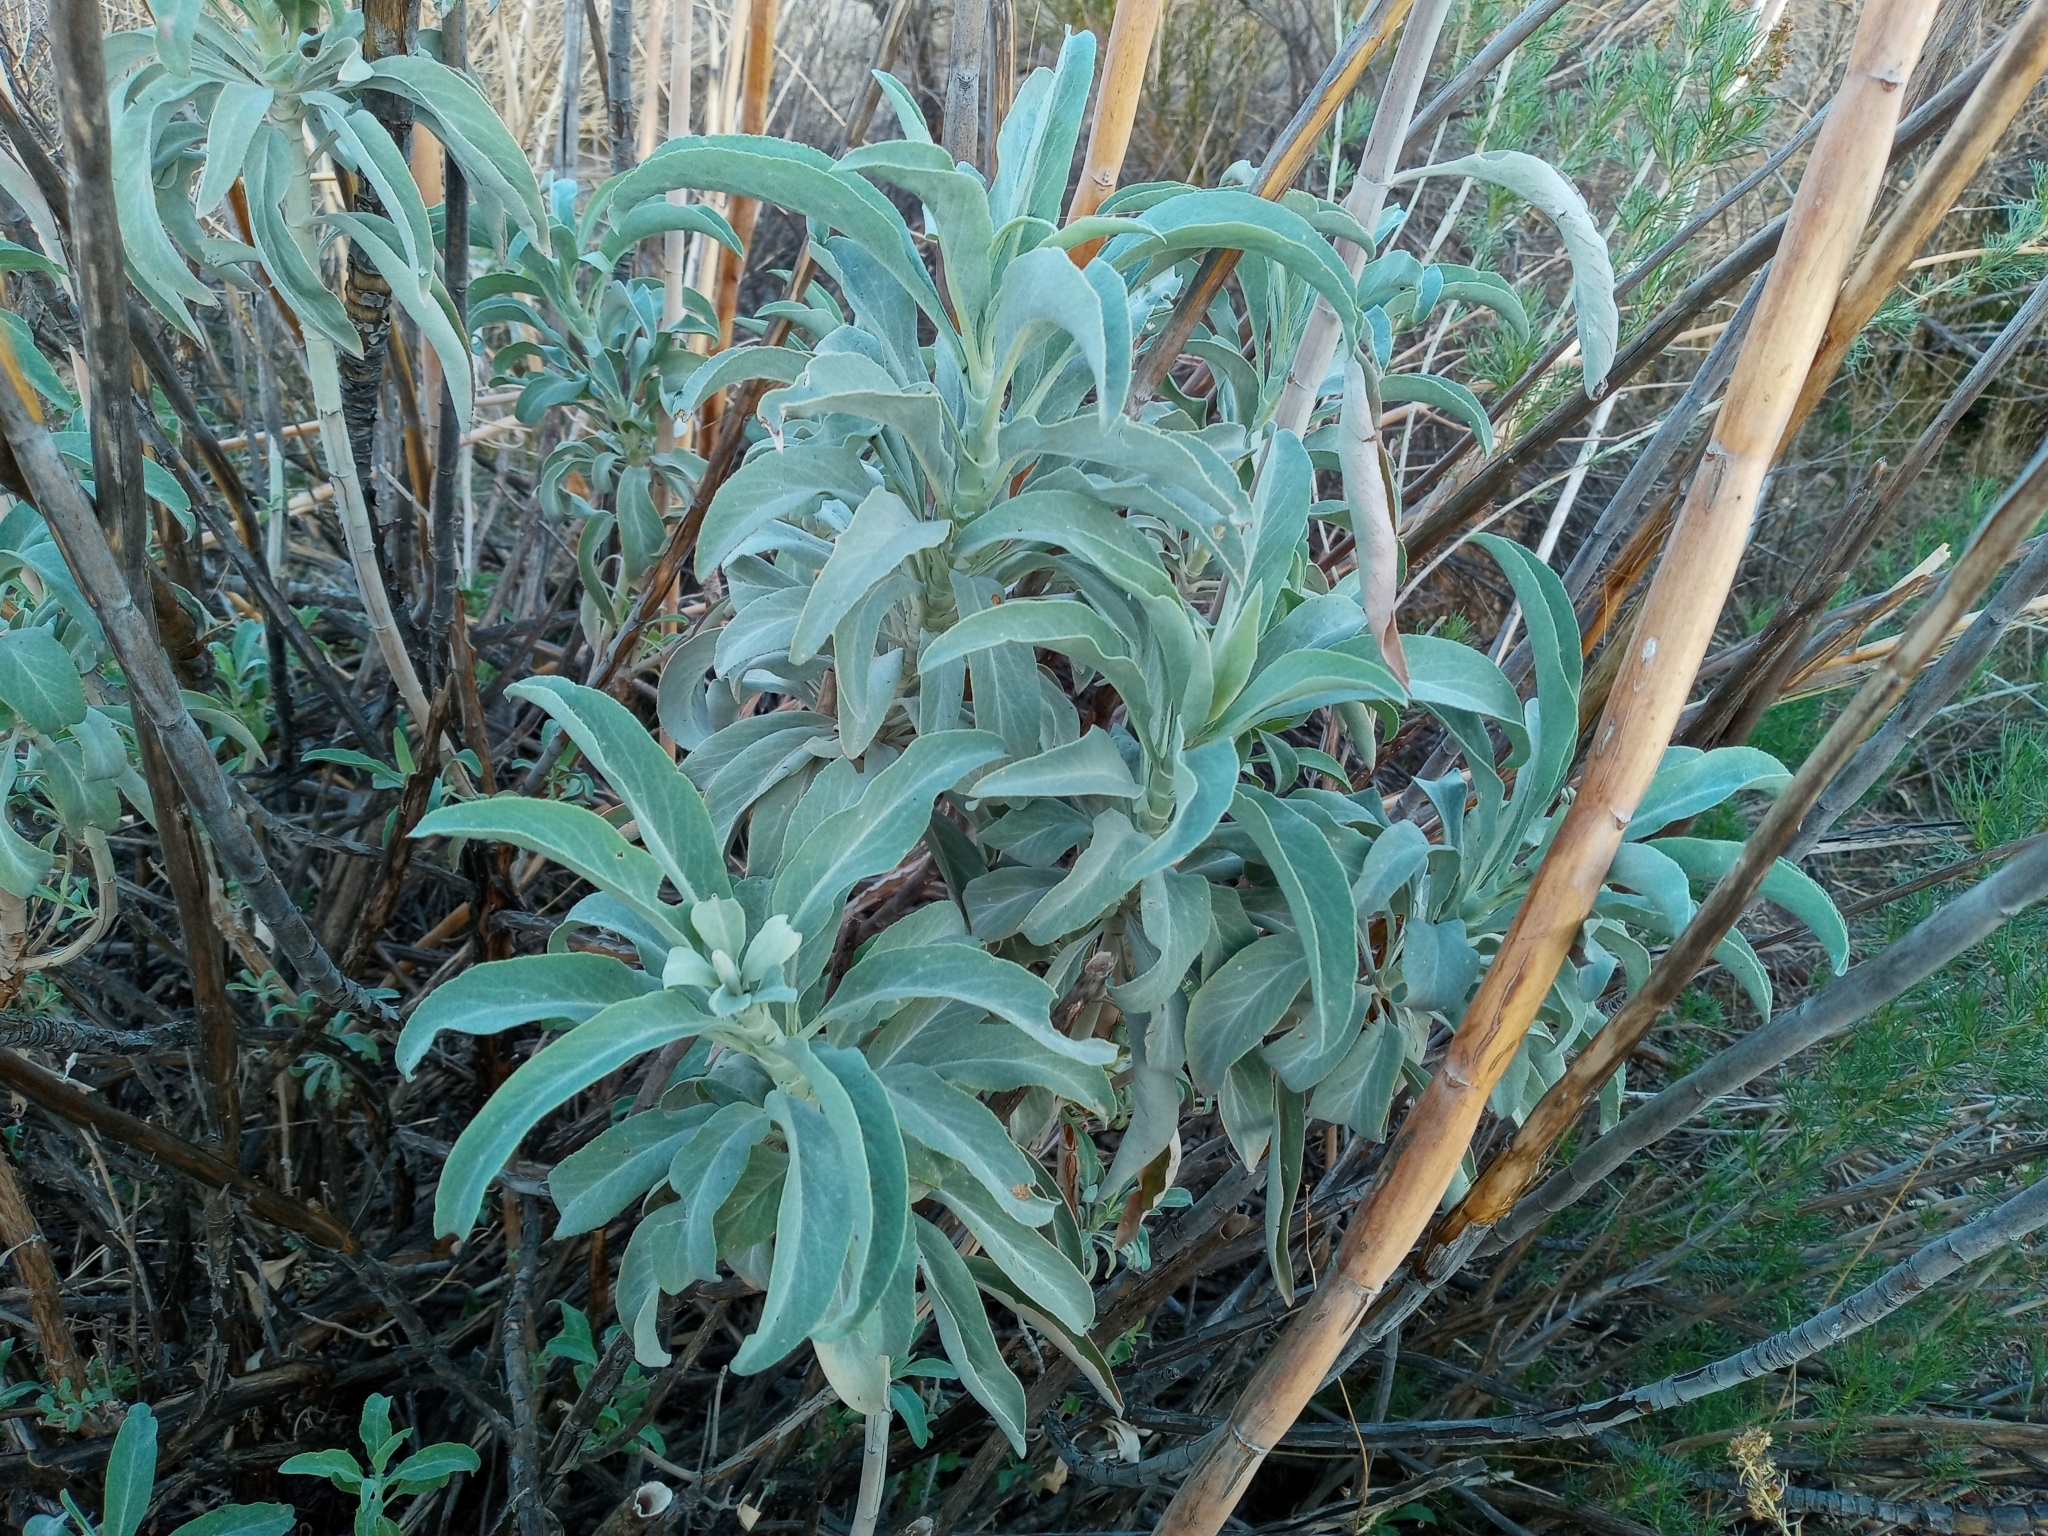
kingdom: Plantae
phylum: Tracheophyta
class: Magnoliopsida
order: Lamiales
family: Lamiaceae
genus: Salvia
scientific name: Salvia apiana
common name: White sage
